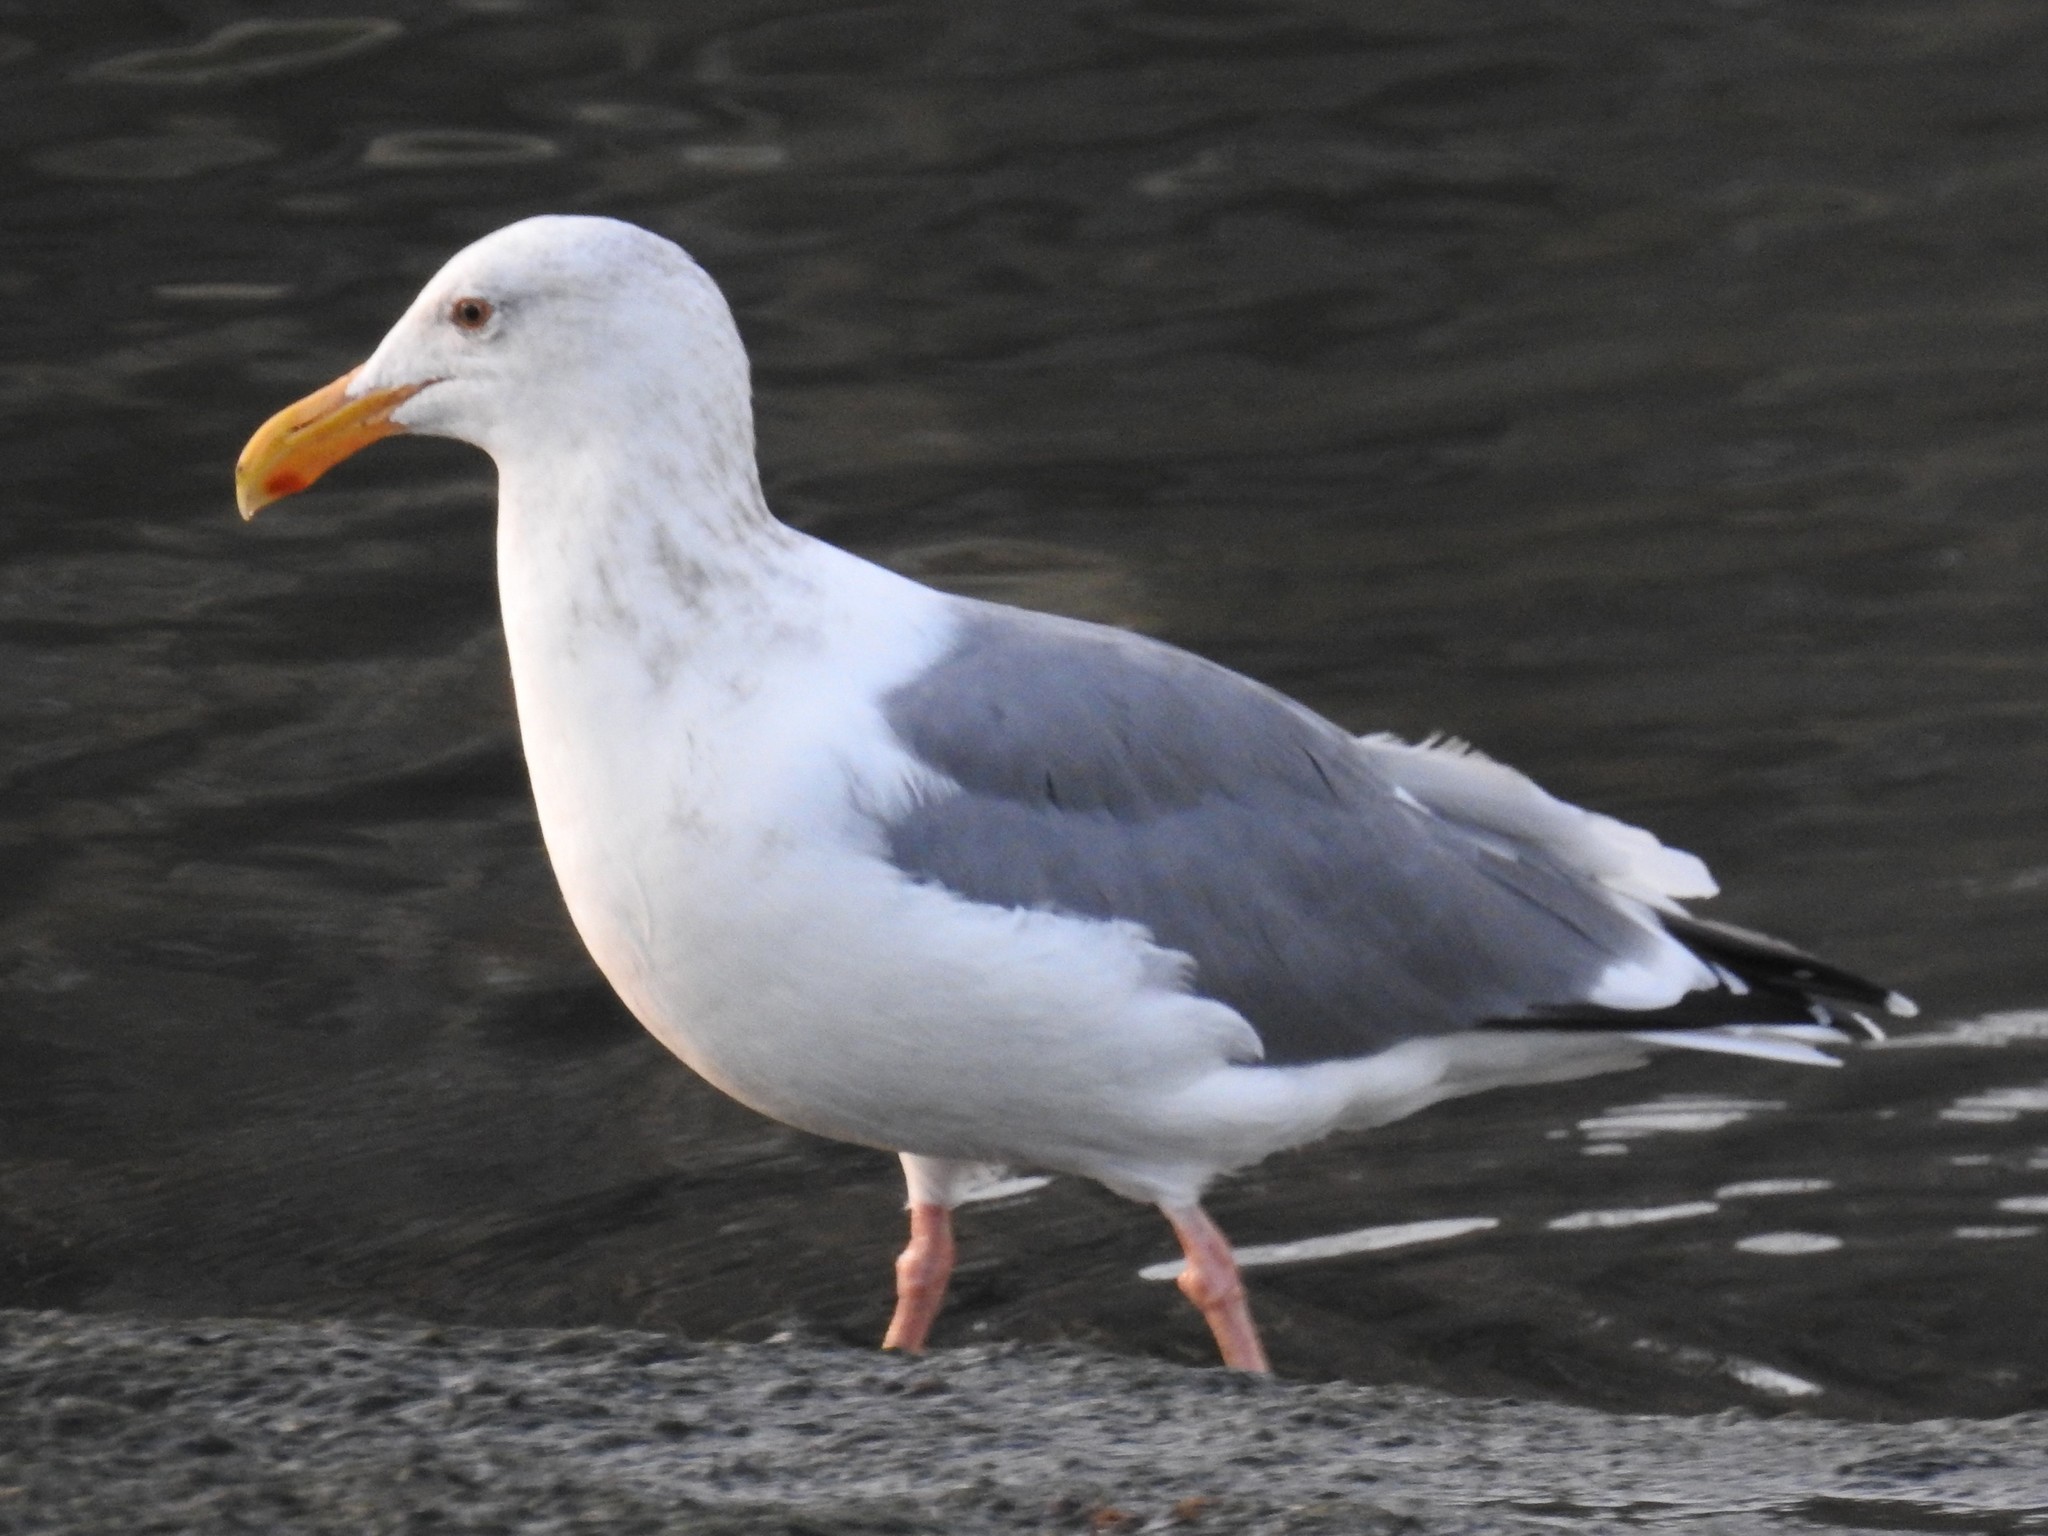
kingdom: Animalia
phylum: Chordata
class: Aves
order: Charadriiformes
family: Laridae
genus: Larus
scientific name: Larus occidentalis
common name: Western gull
